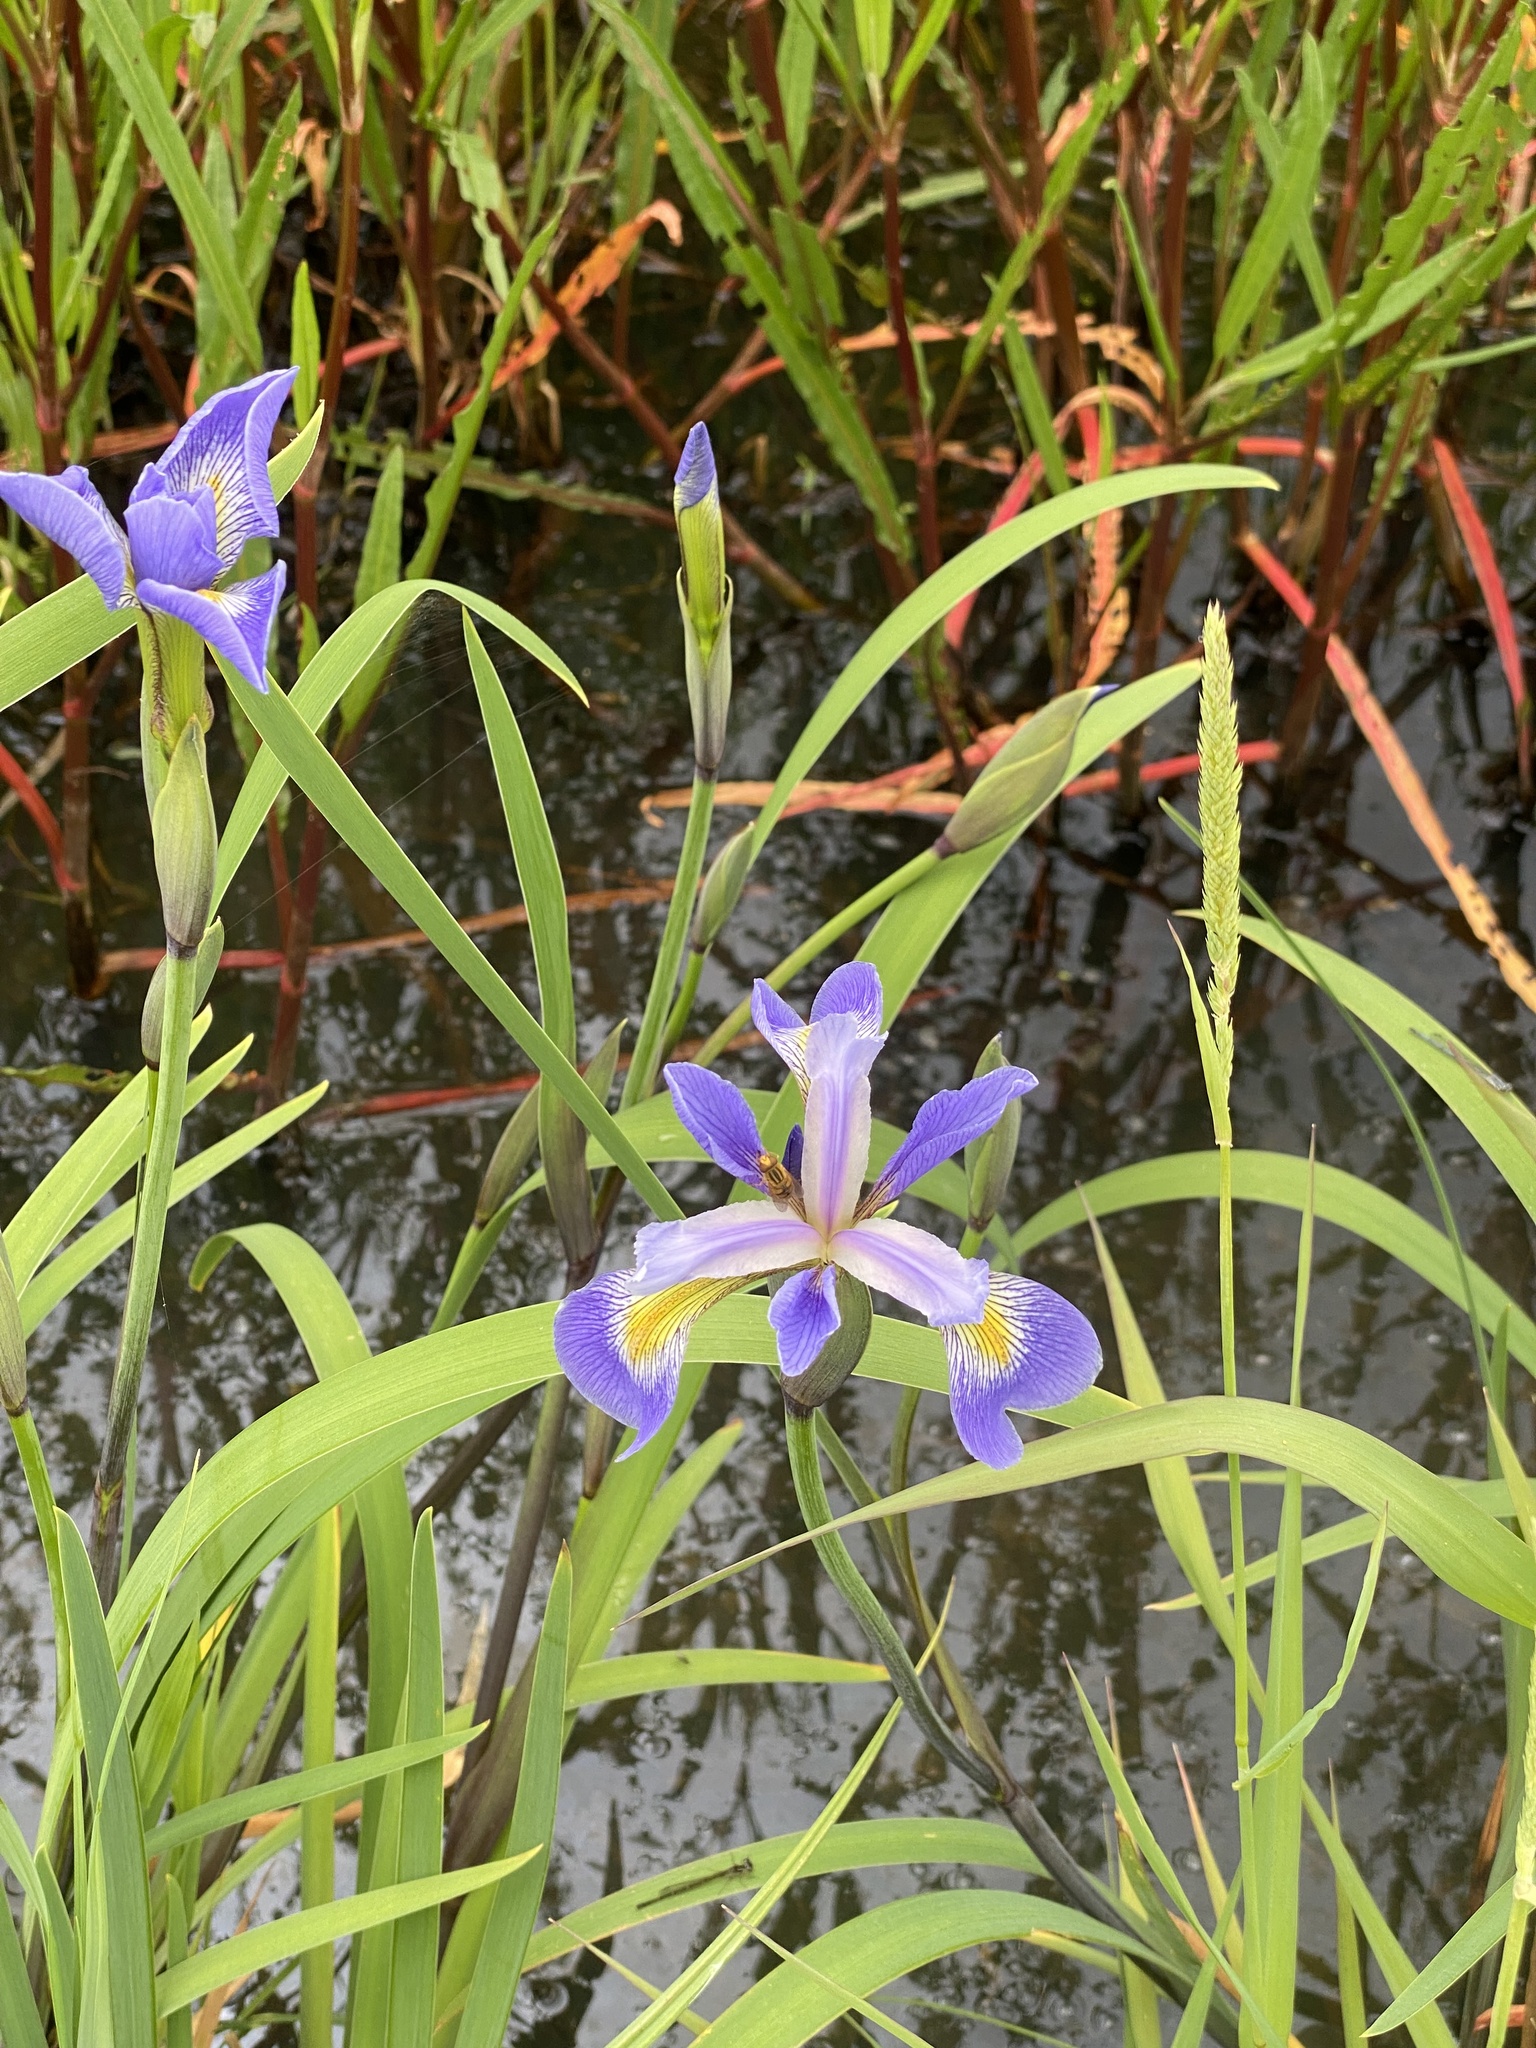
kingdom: Plantae
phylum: Tracheophyta
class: Liliopsida
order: Asparagales
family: Iridaceae
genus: Iris
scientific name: Iris virginica
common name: Southern blue flag
